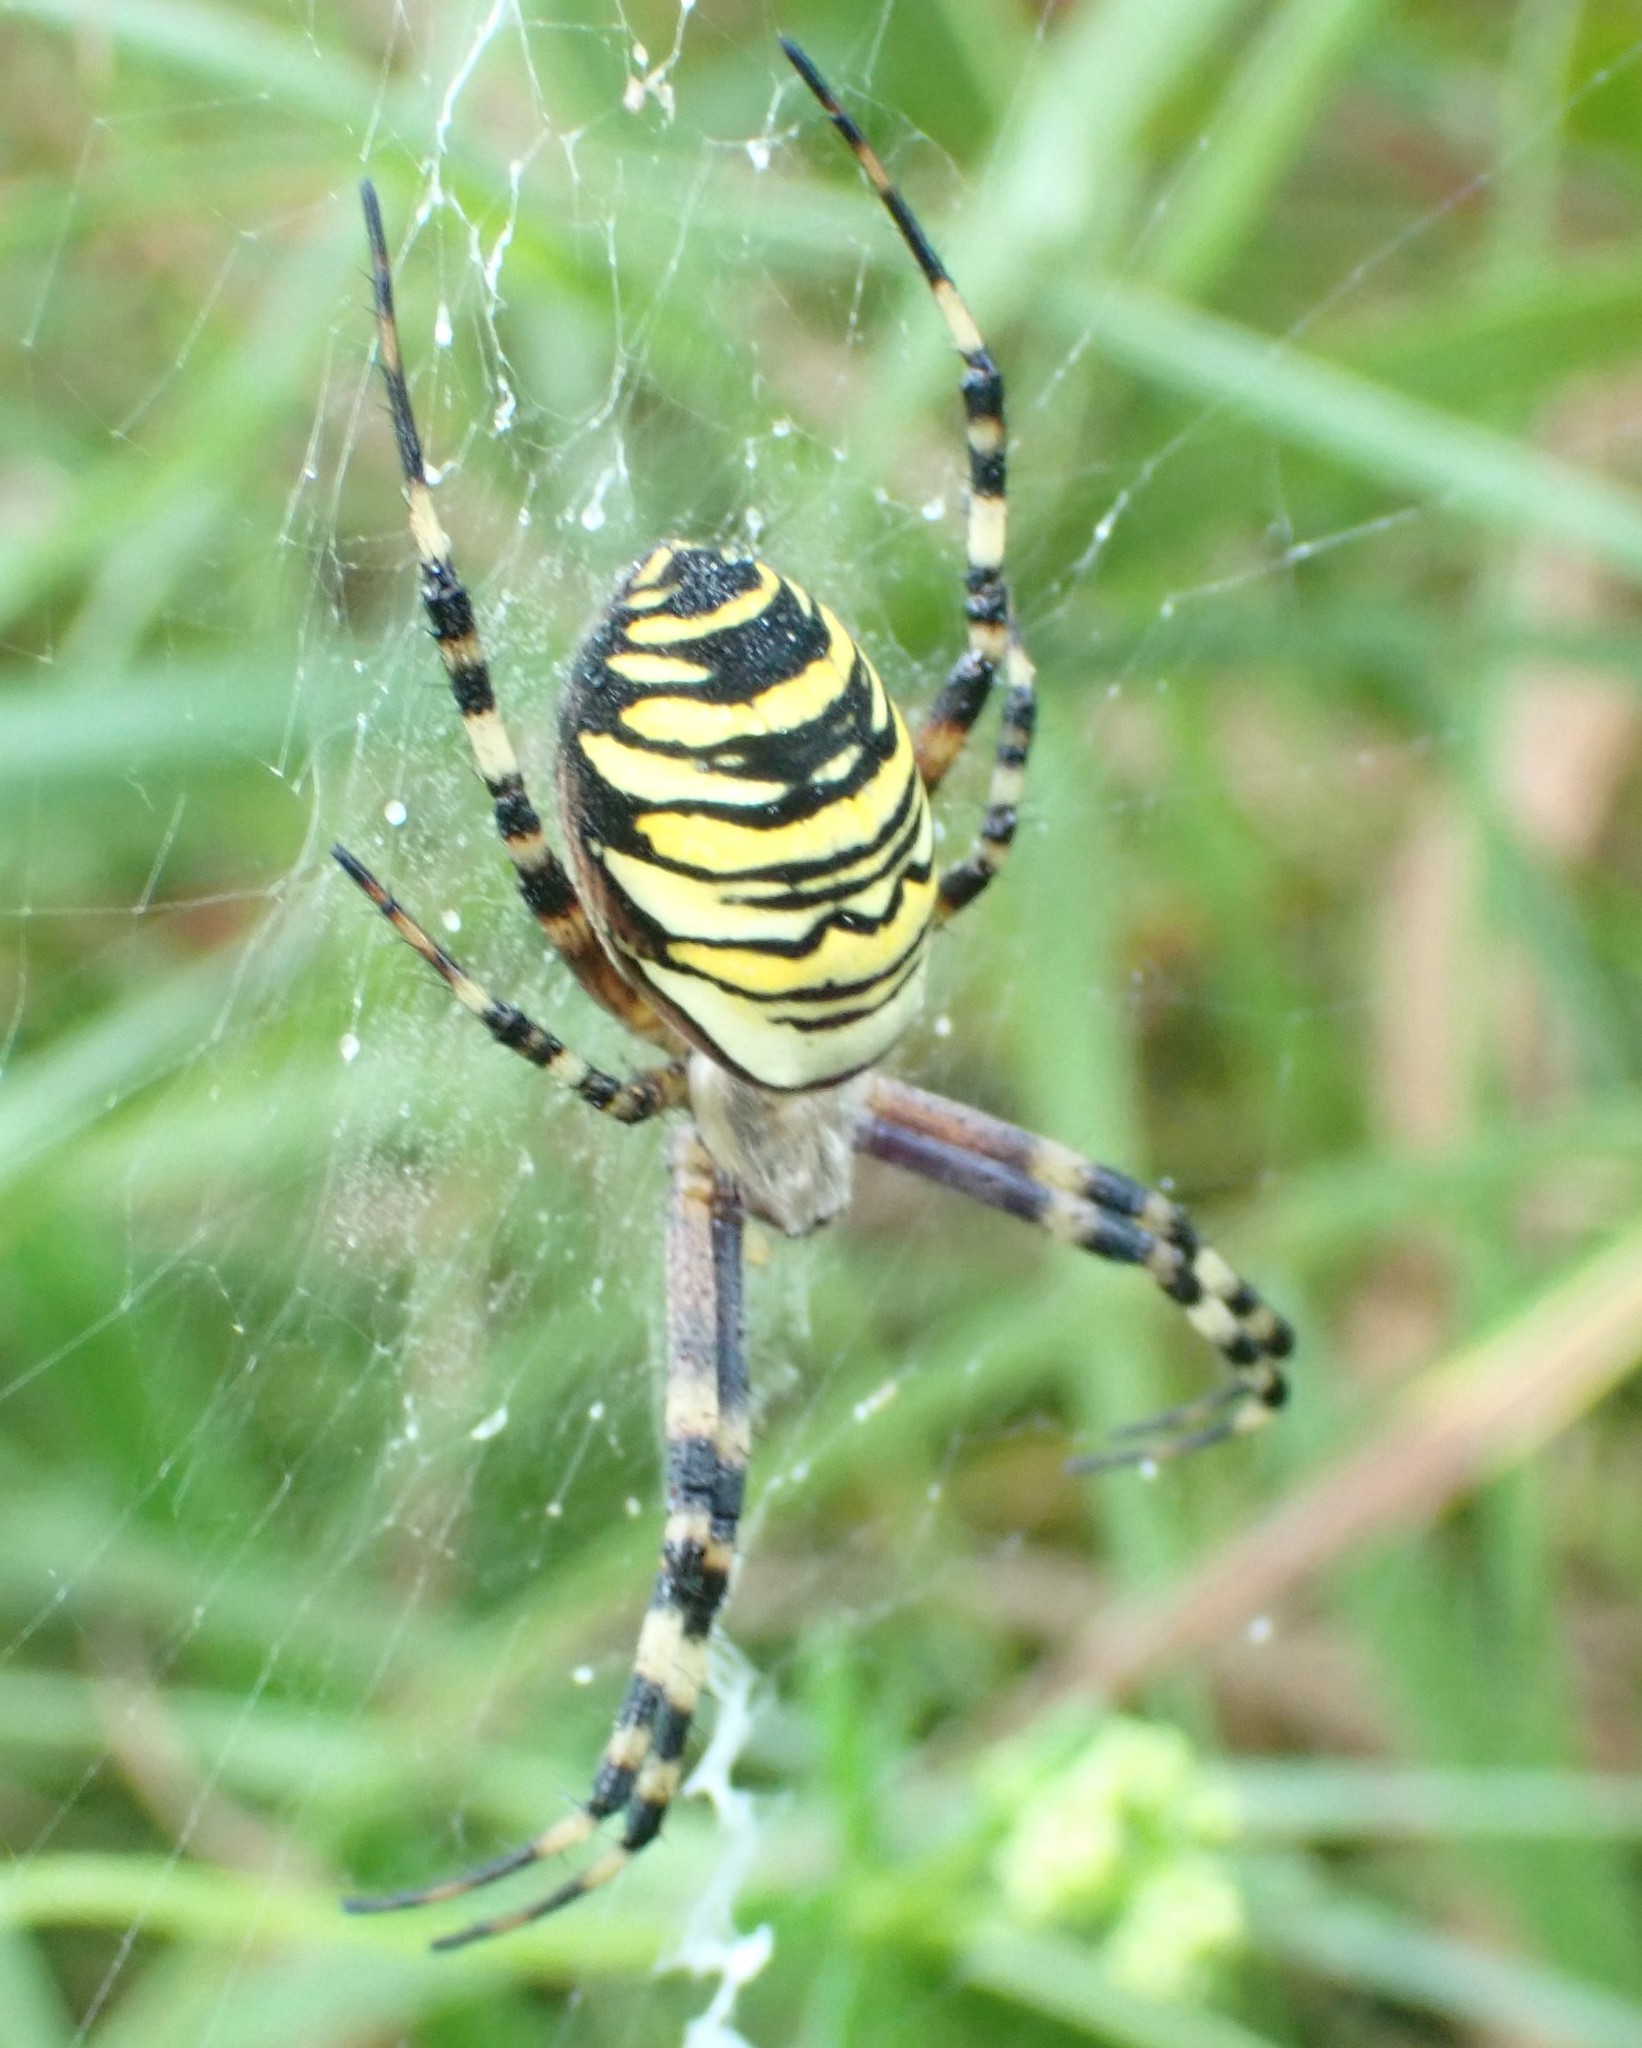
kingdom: Animalia
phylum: Arthropoda
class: Arachnida
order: Araneae
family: Araneidae
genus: Argiope
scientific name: Argiope bruennichi
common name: Wasp spider
